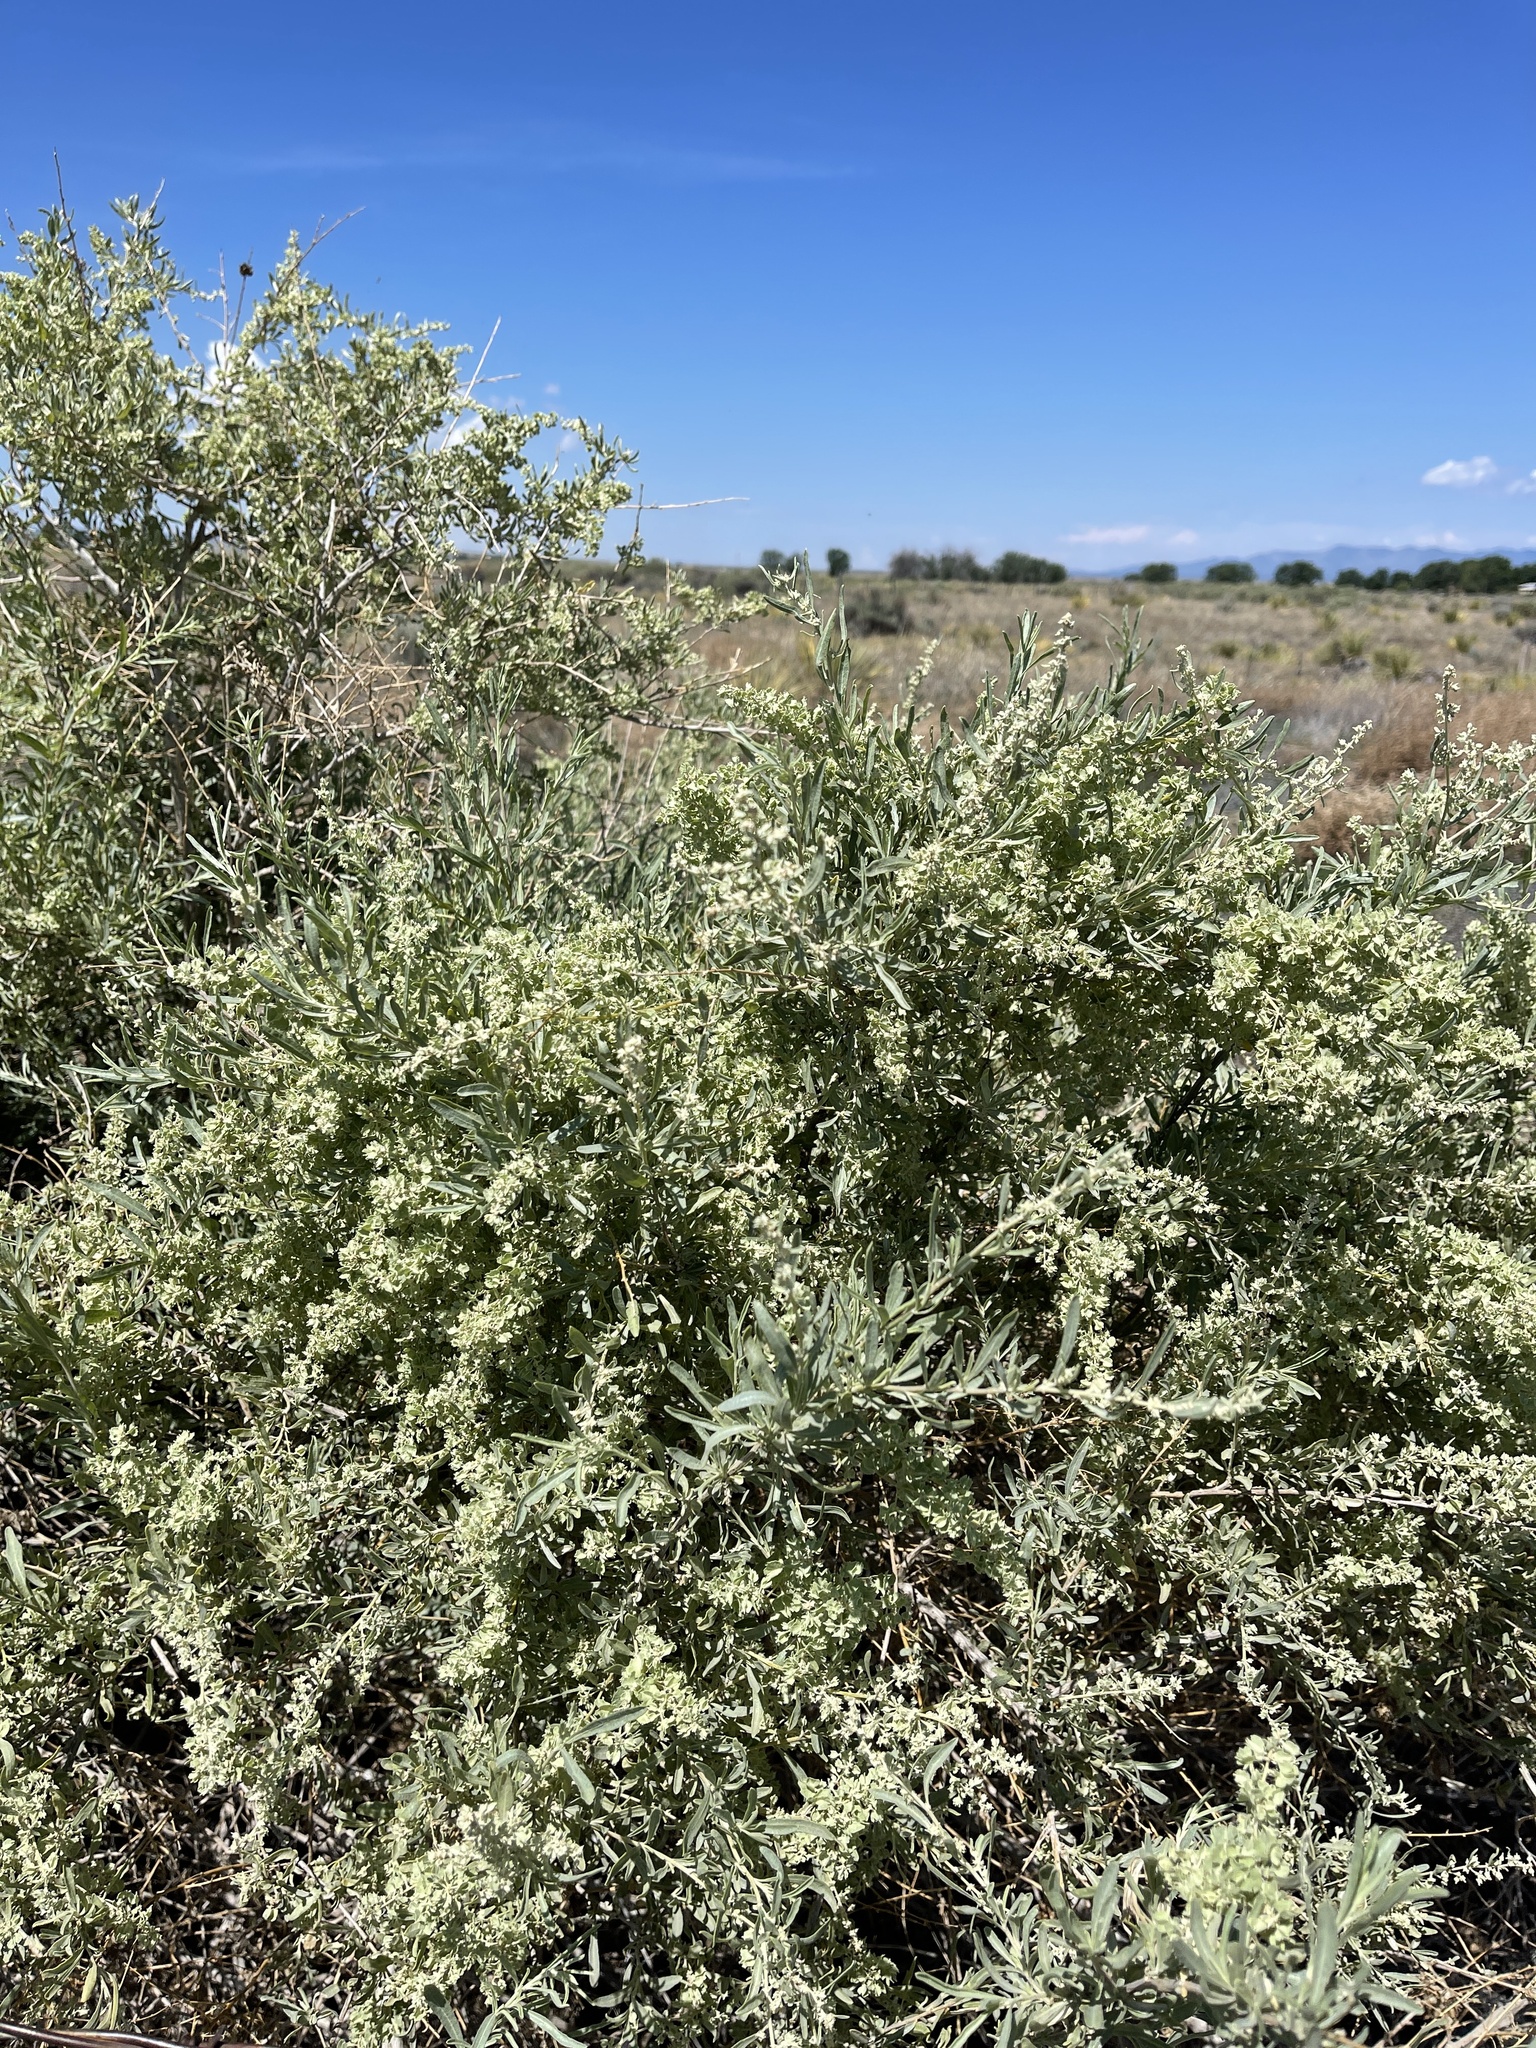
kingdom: Plantae
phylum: Tracheophyta
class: Magnoliopsida
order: Caryophyllales
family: Amaranthaceae
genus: Atriplex
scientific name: Atriplex canescens
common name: Four-wing saltbush
